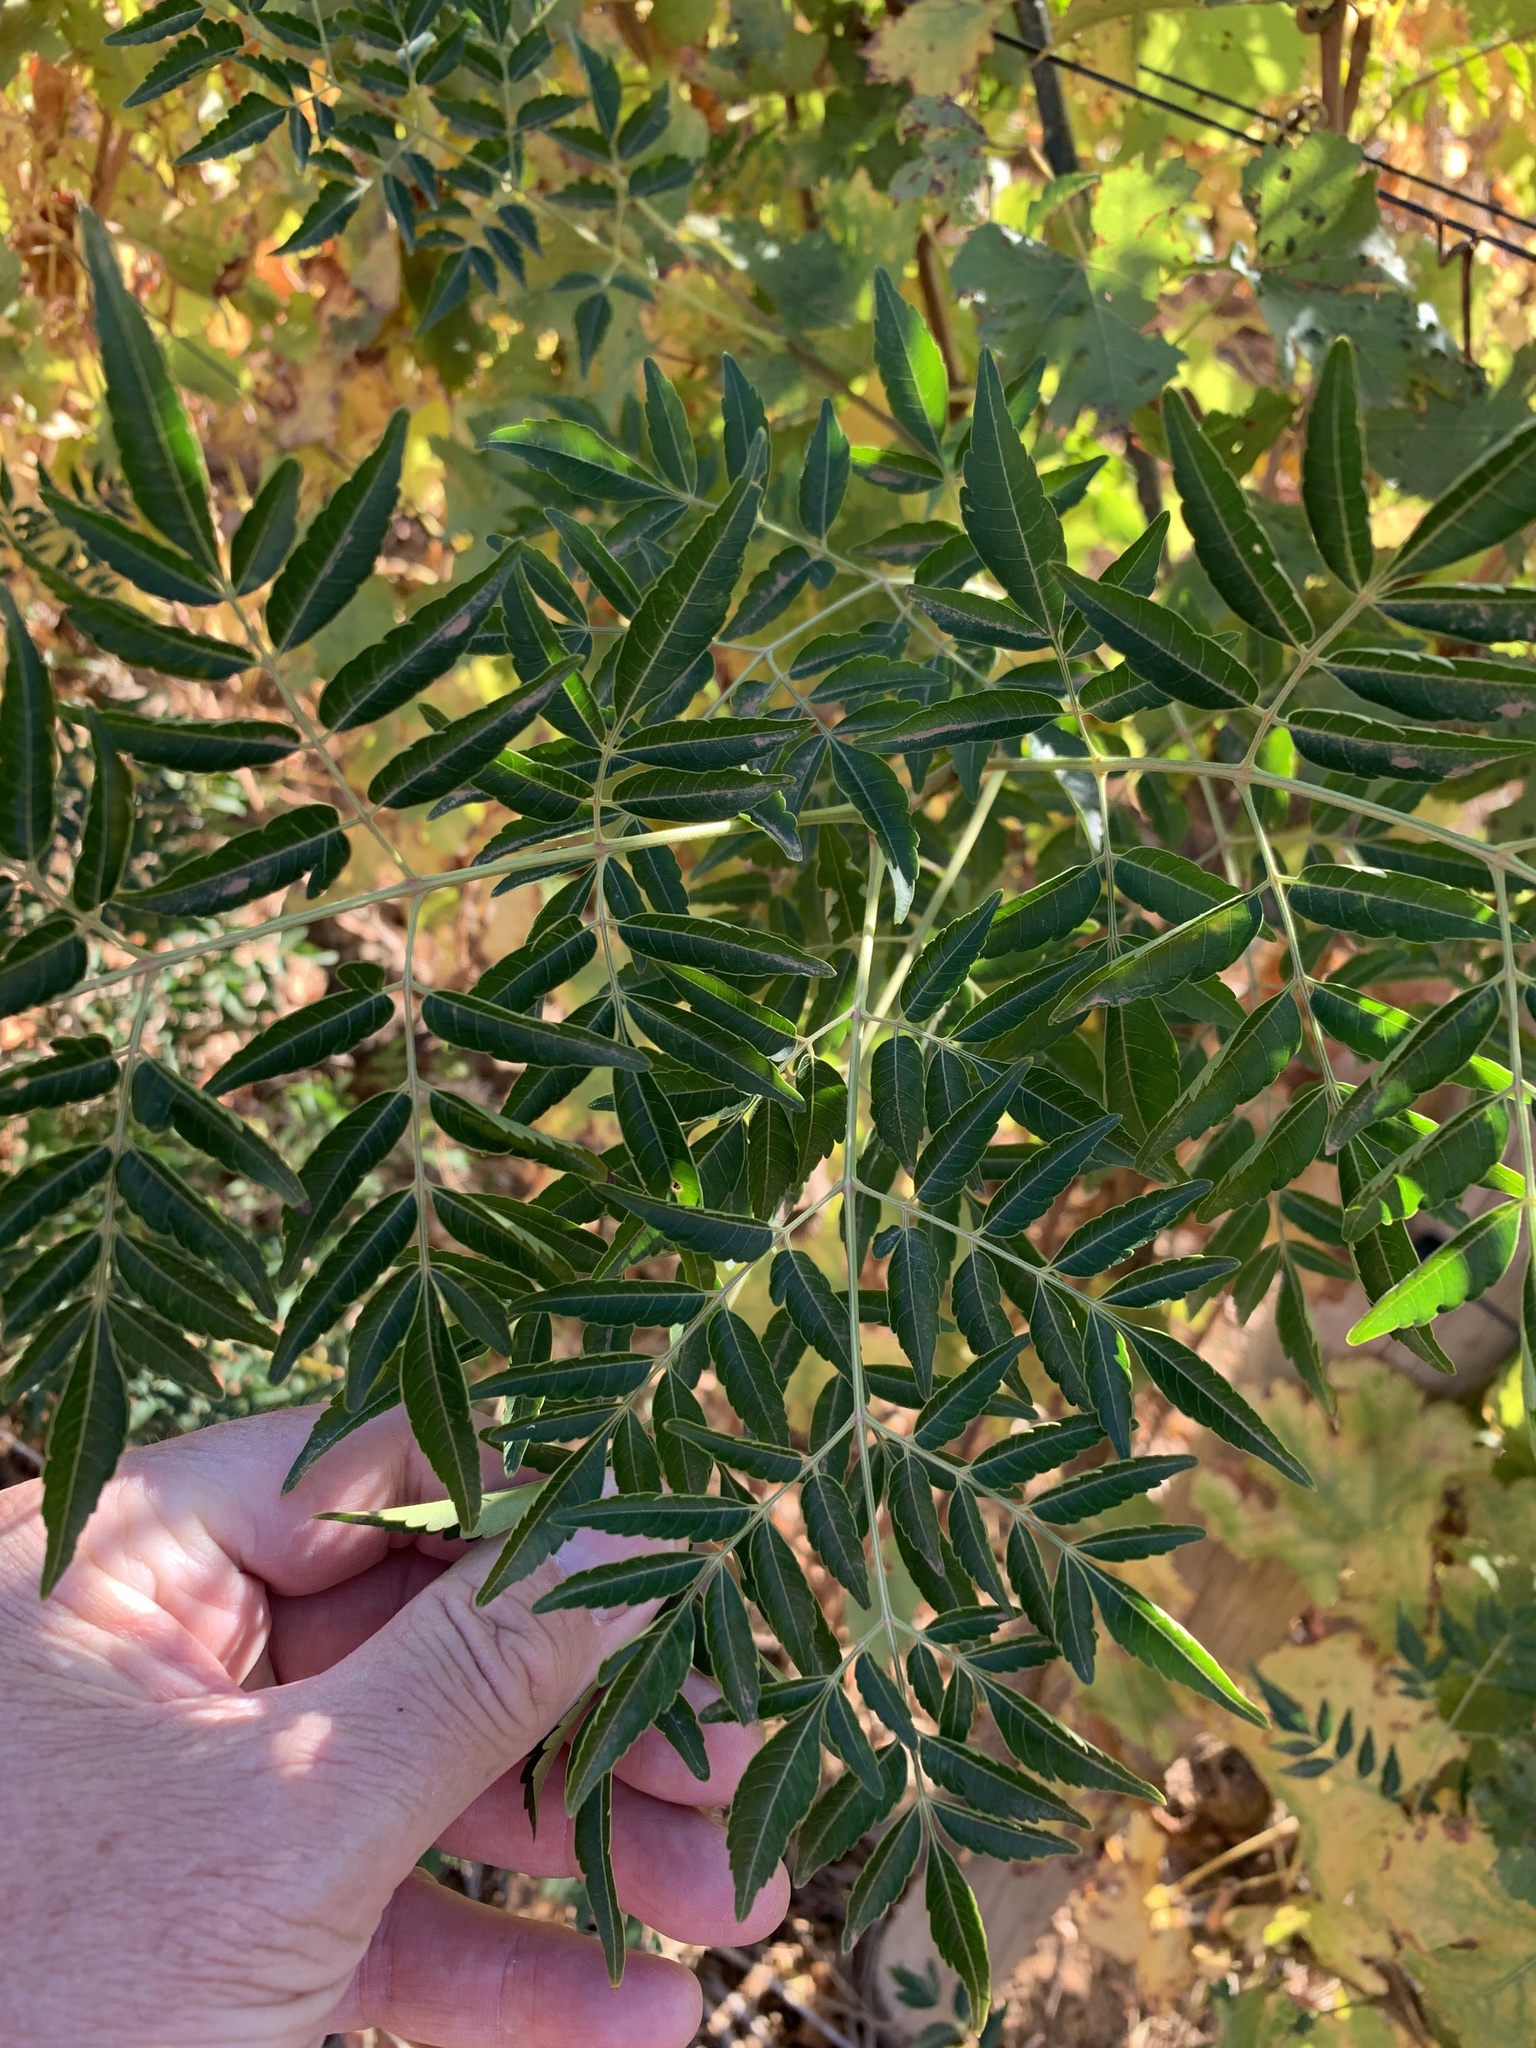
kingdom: Plantae
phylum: Tracheophyta
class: Magnoliopsida
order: Sapindales
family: Meliaceae
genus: Melia
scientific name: Melia azedarach
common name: Chinaberrytree
